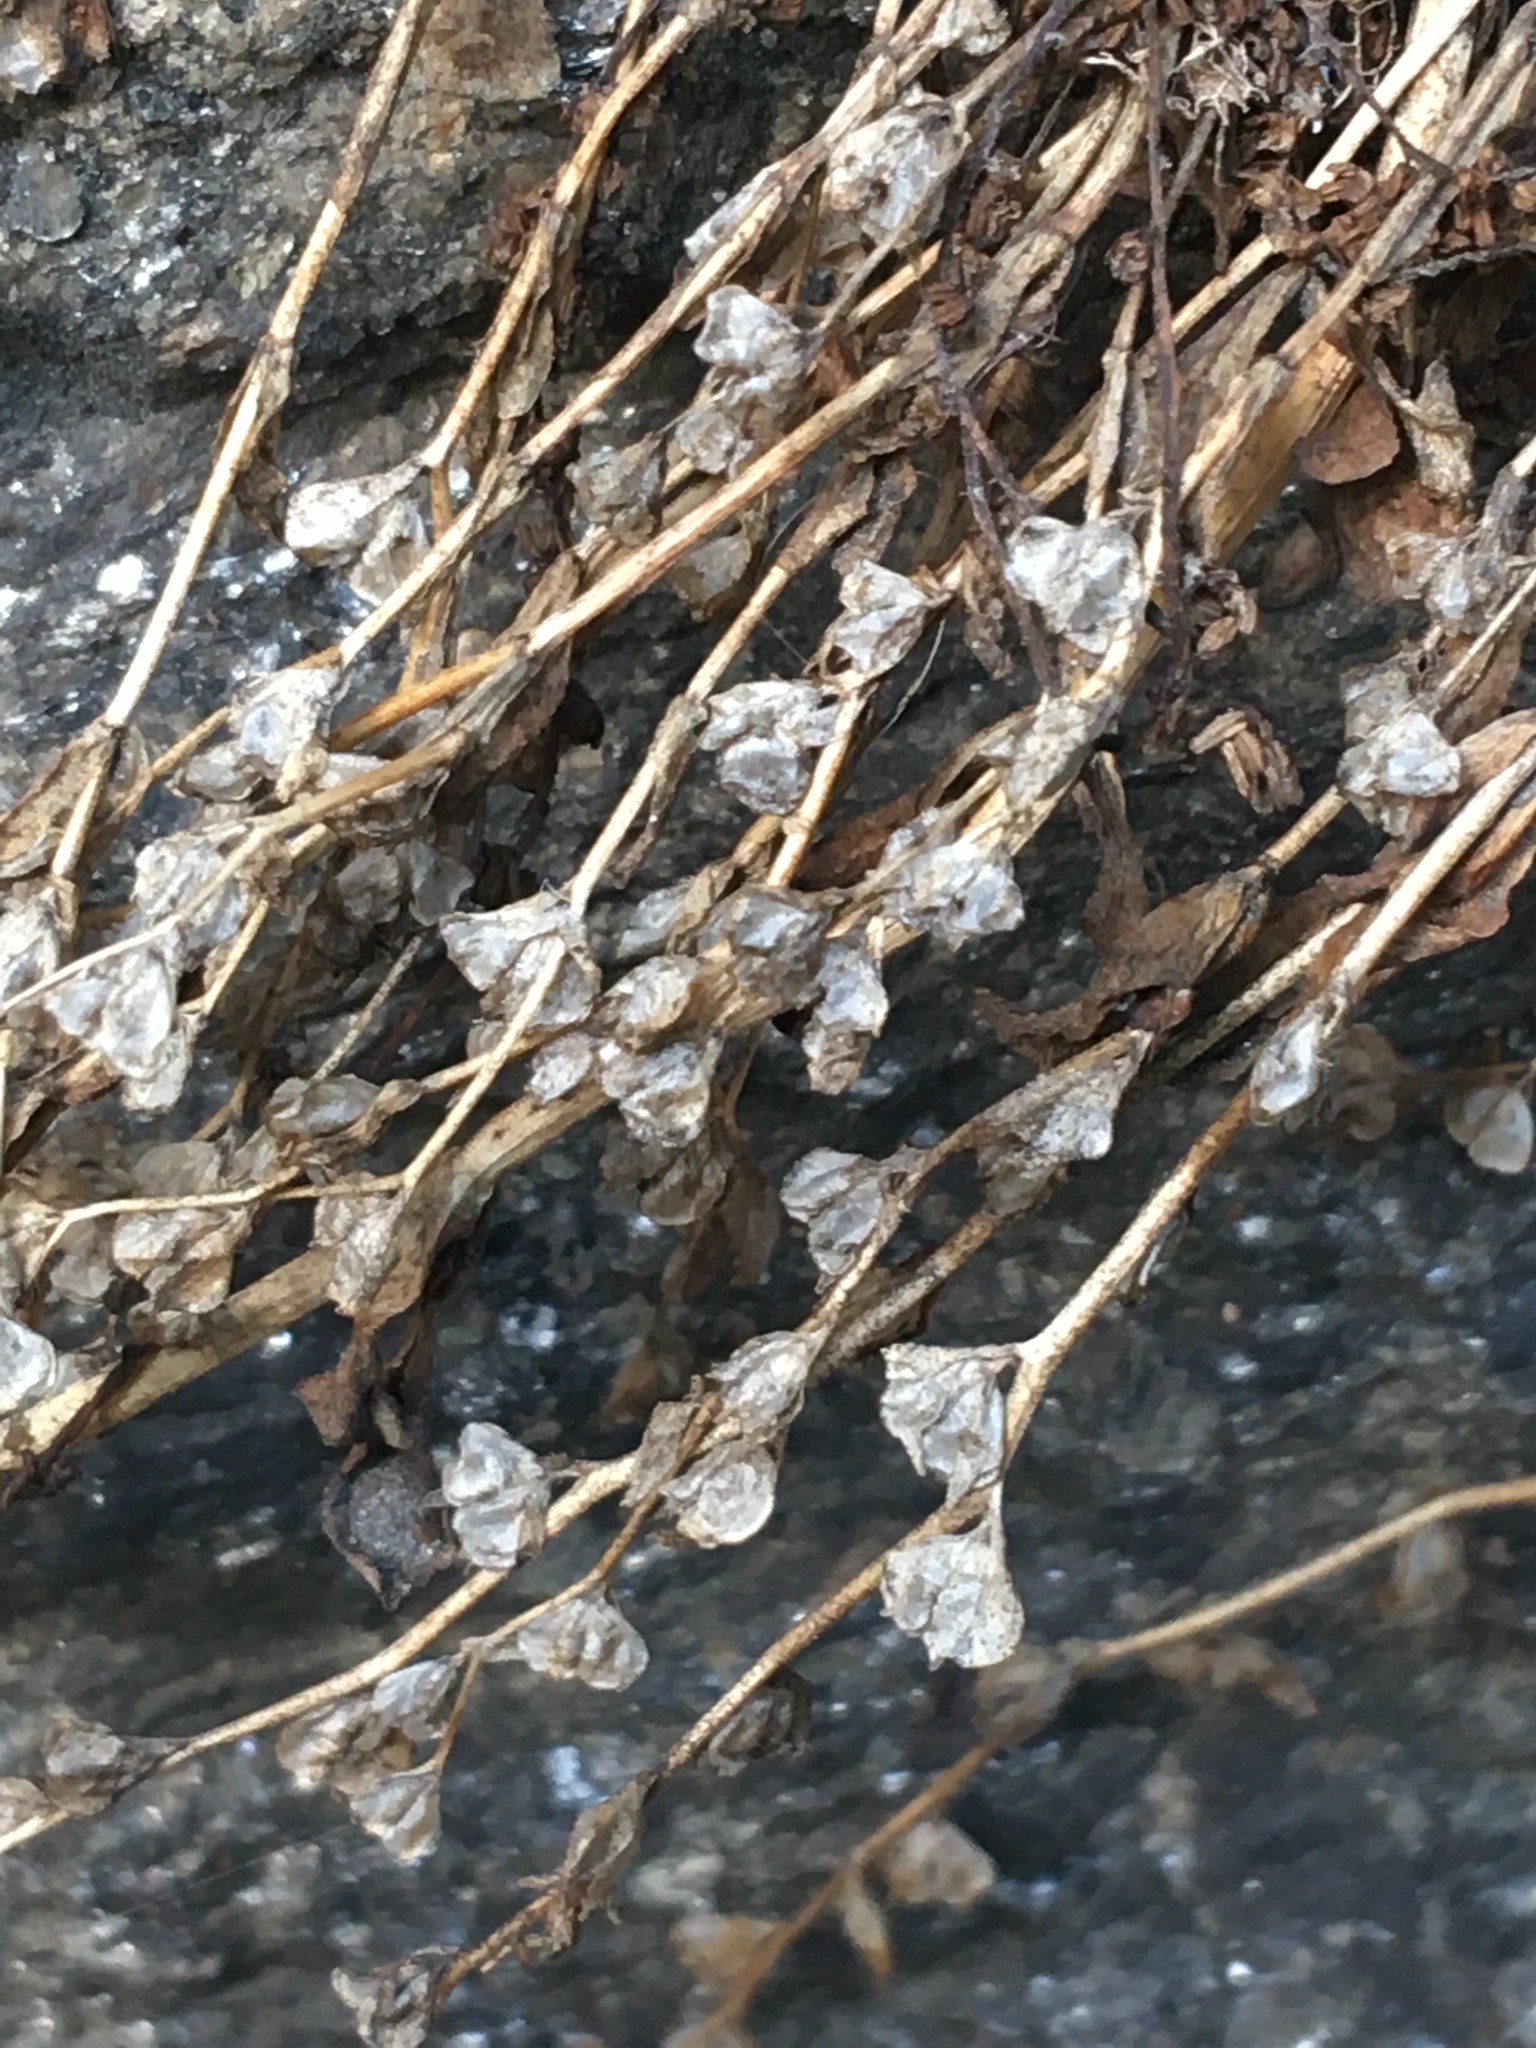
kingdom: Plantae
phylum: Tracheophyta
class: Magnoliopsida
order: Lamiales
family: Plantaginaceae
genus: Veronica
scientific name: Veronica peregrina
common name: Neckweed
